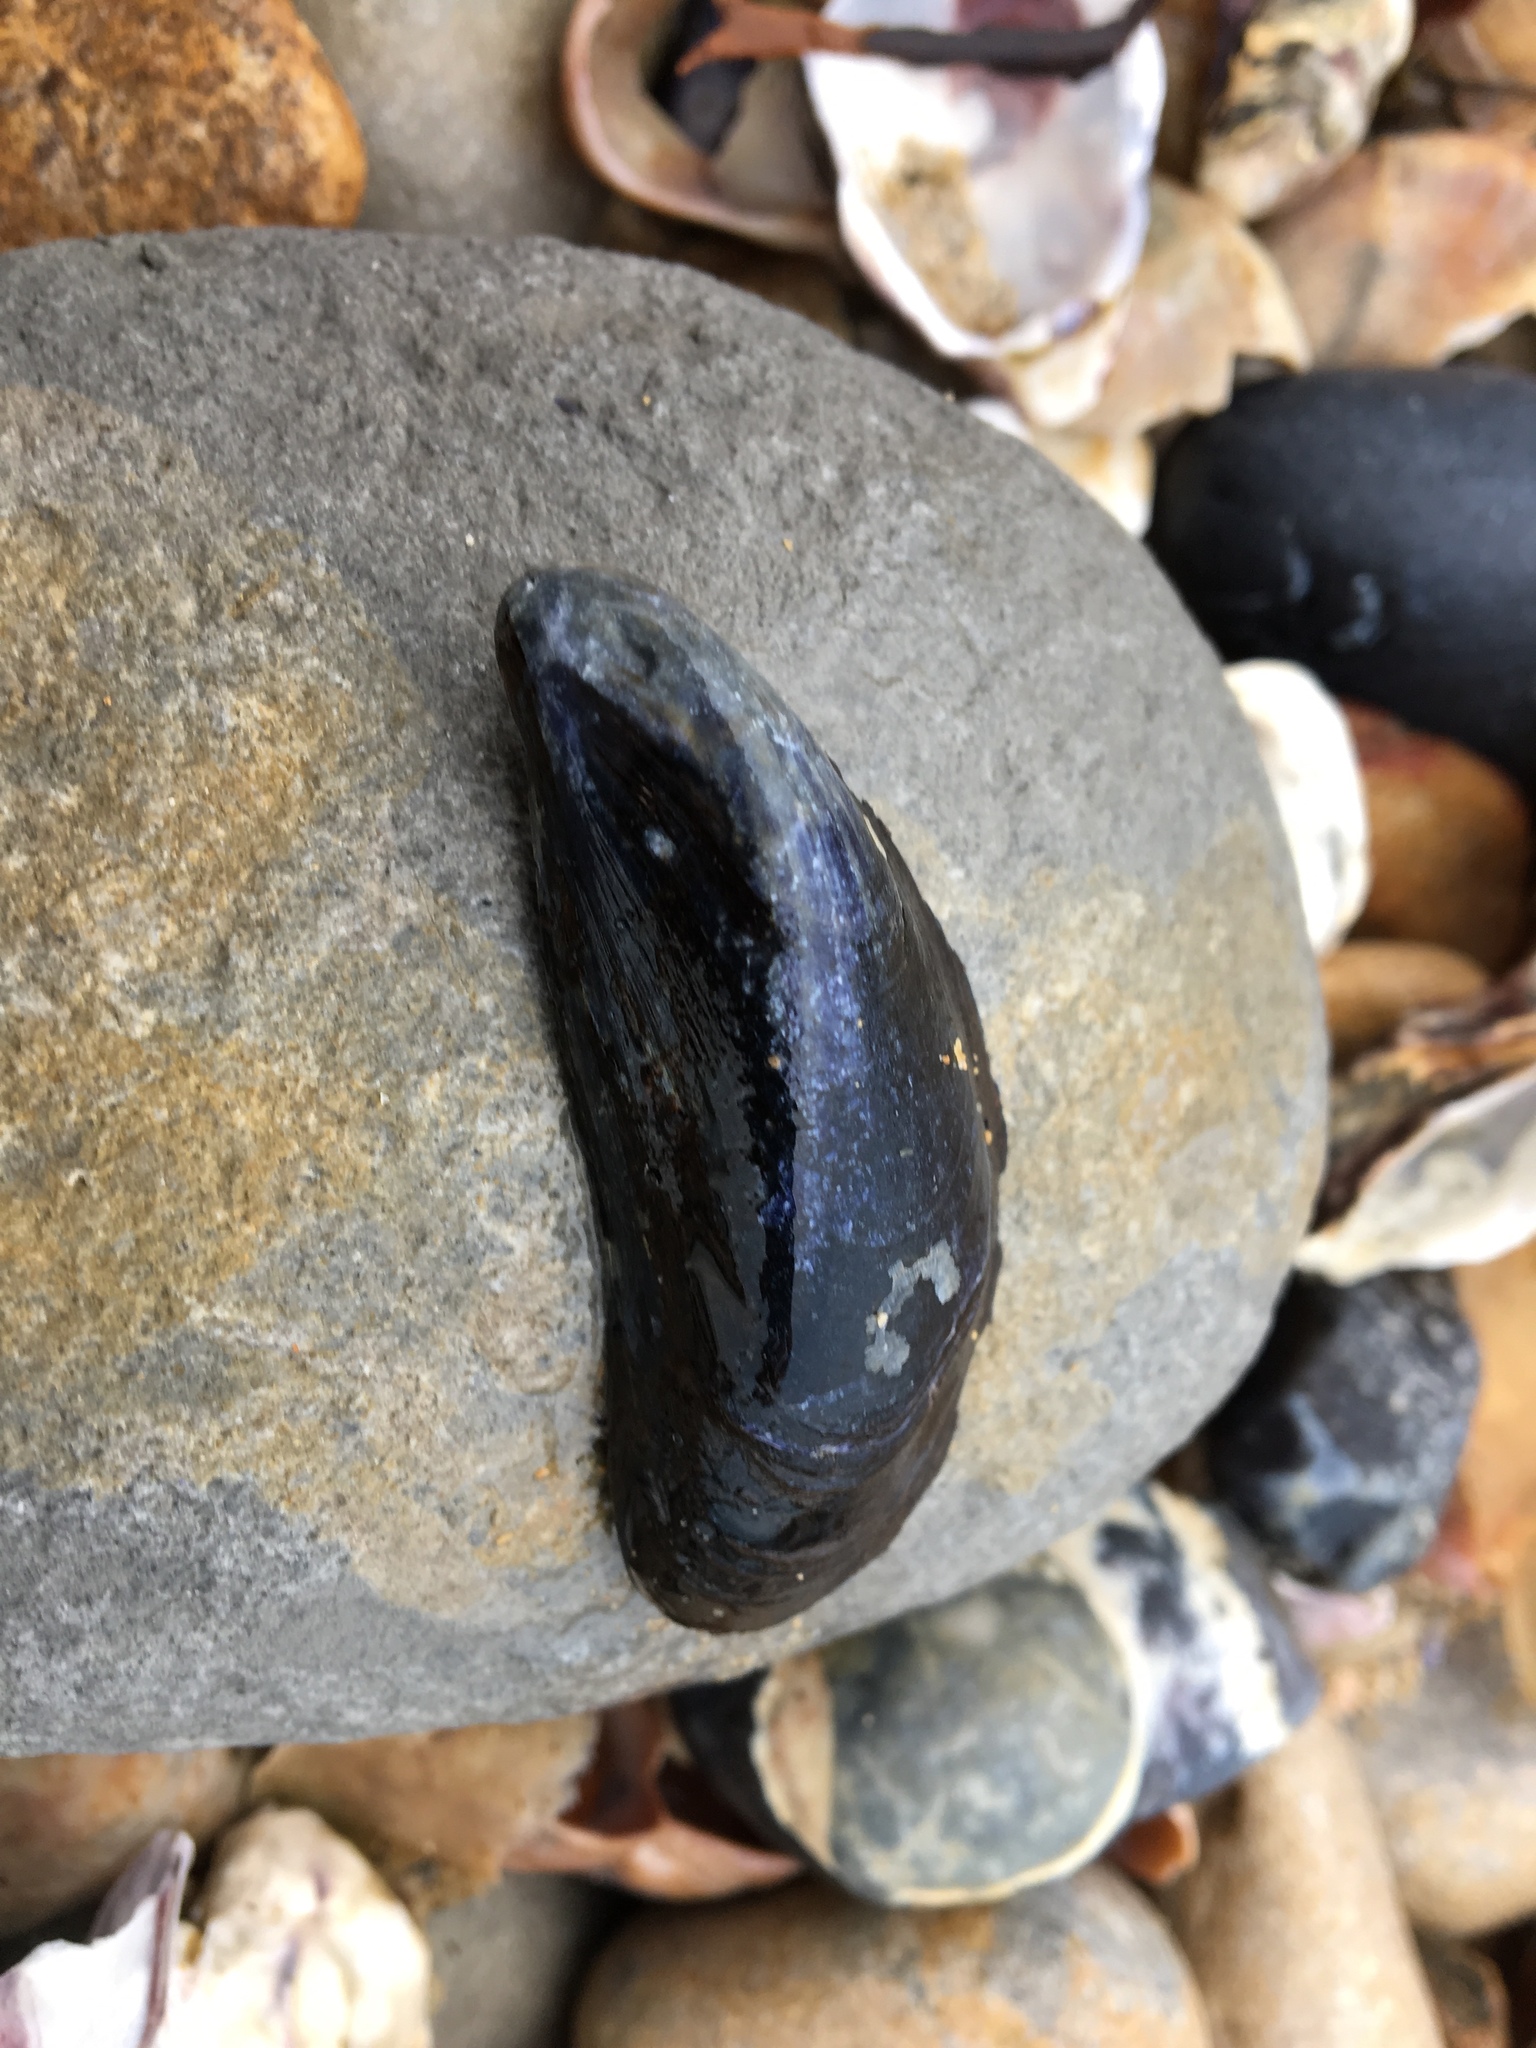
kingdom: Animalia
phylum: Mollusca
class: Bivalvia
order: Mytilida
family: Mytilidae
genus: Mytilus
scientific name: Mytilus edulis
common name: Blue mussel
